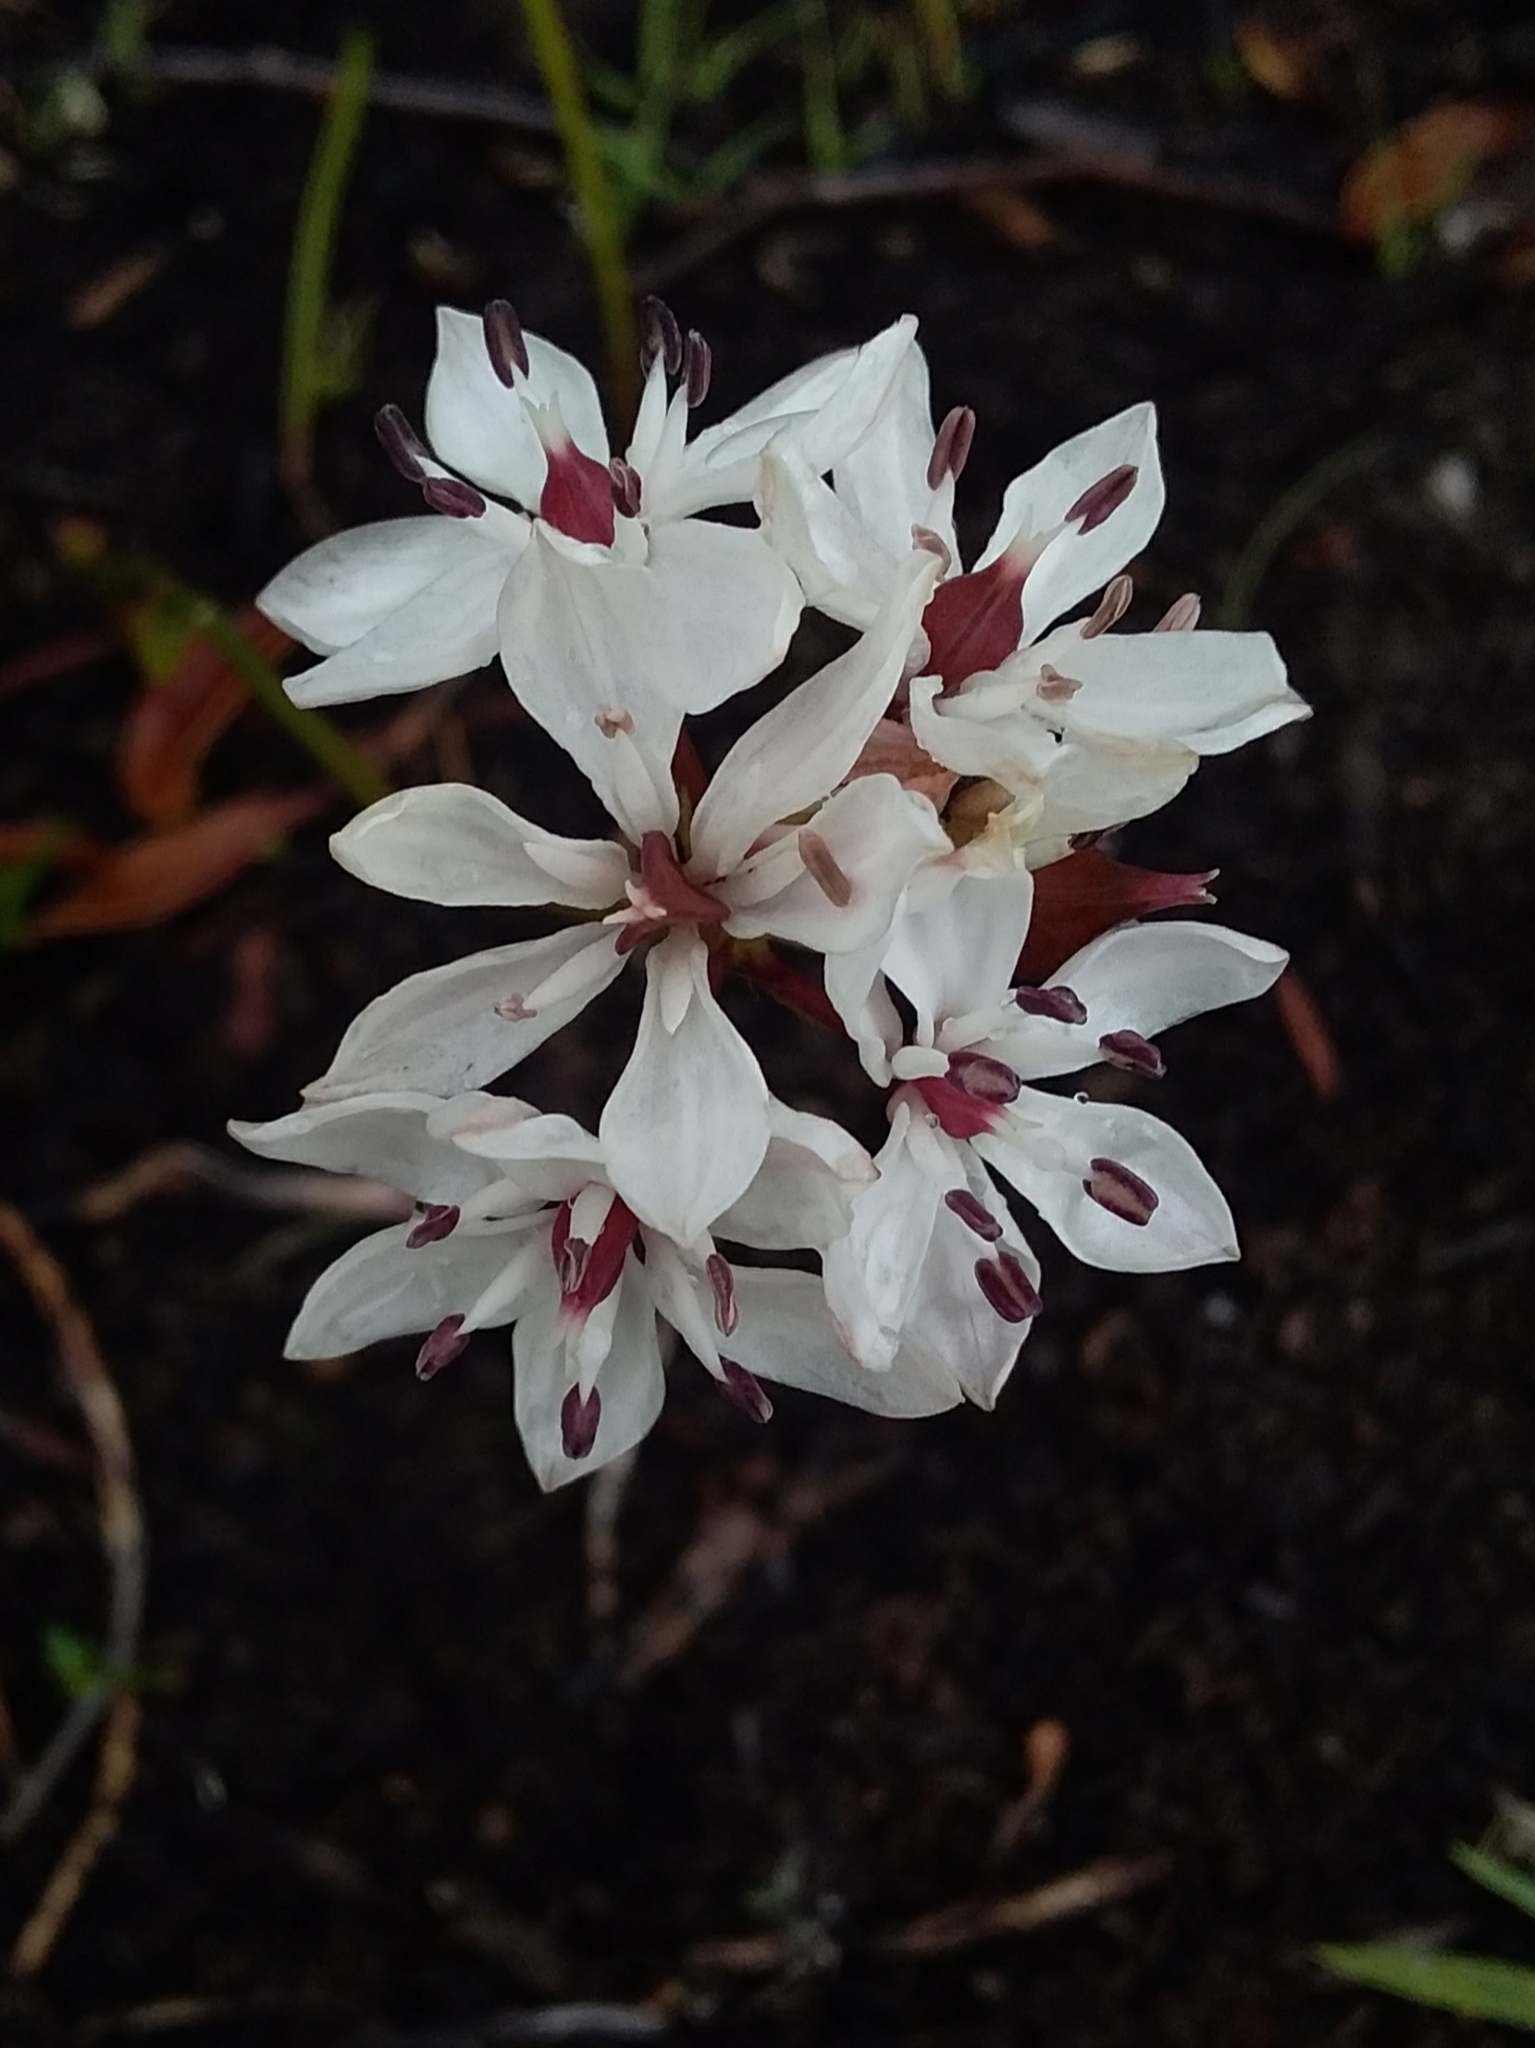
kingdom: Plantae
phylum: Tracheophyta
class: Liliopsida
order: Liliales
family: Colchicaceae
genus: Burchardia
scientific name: Burchardia umbellata
